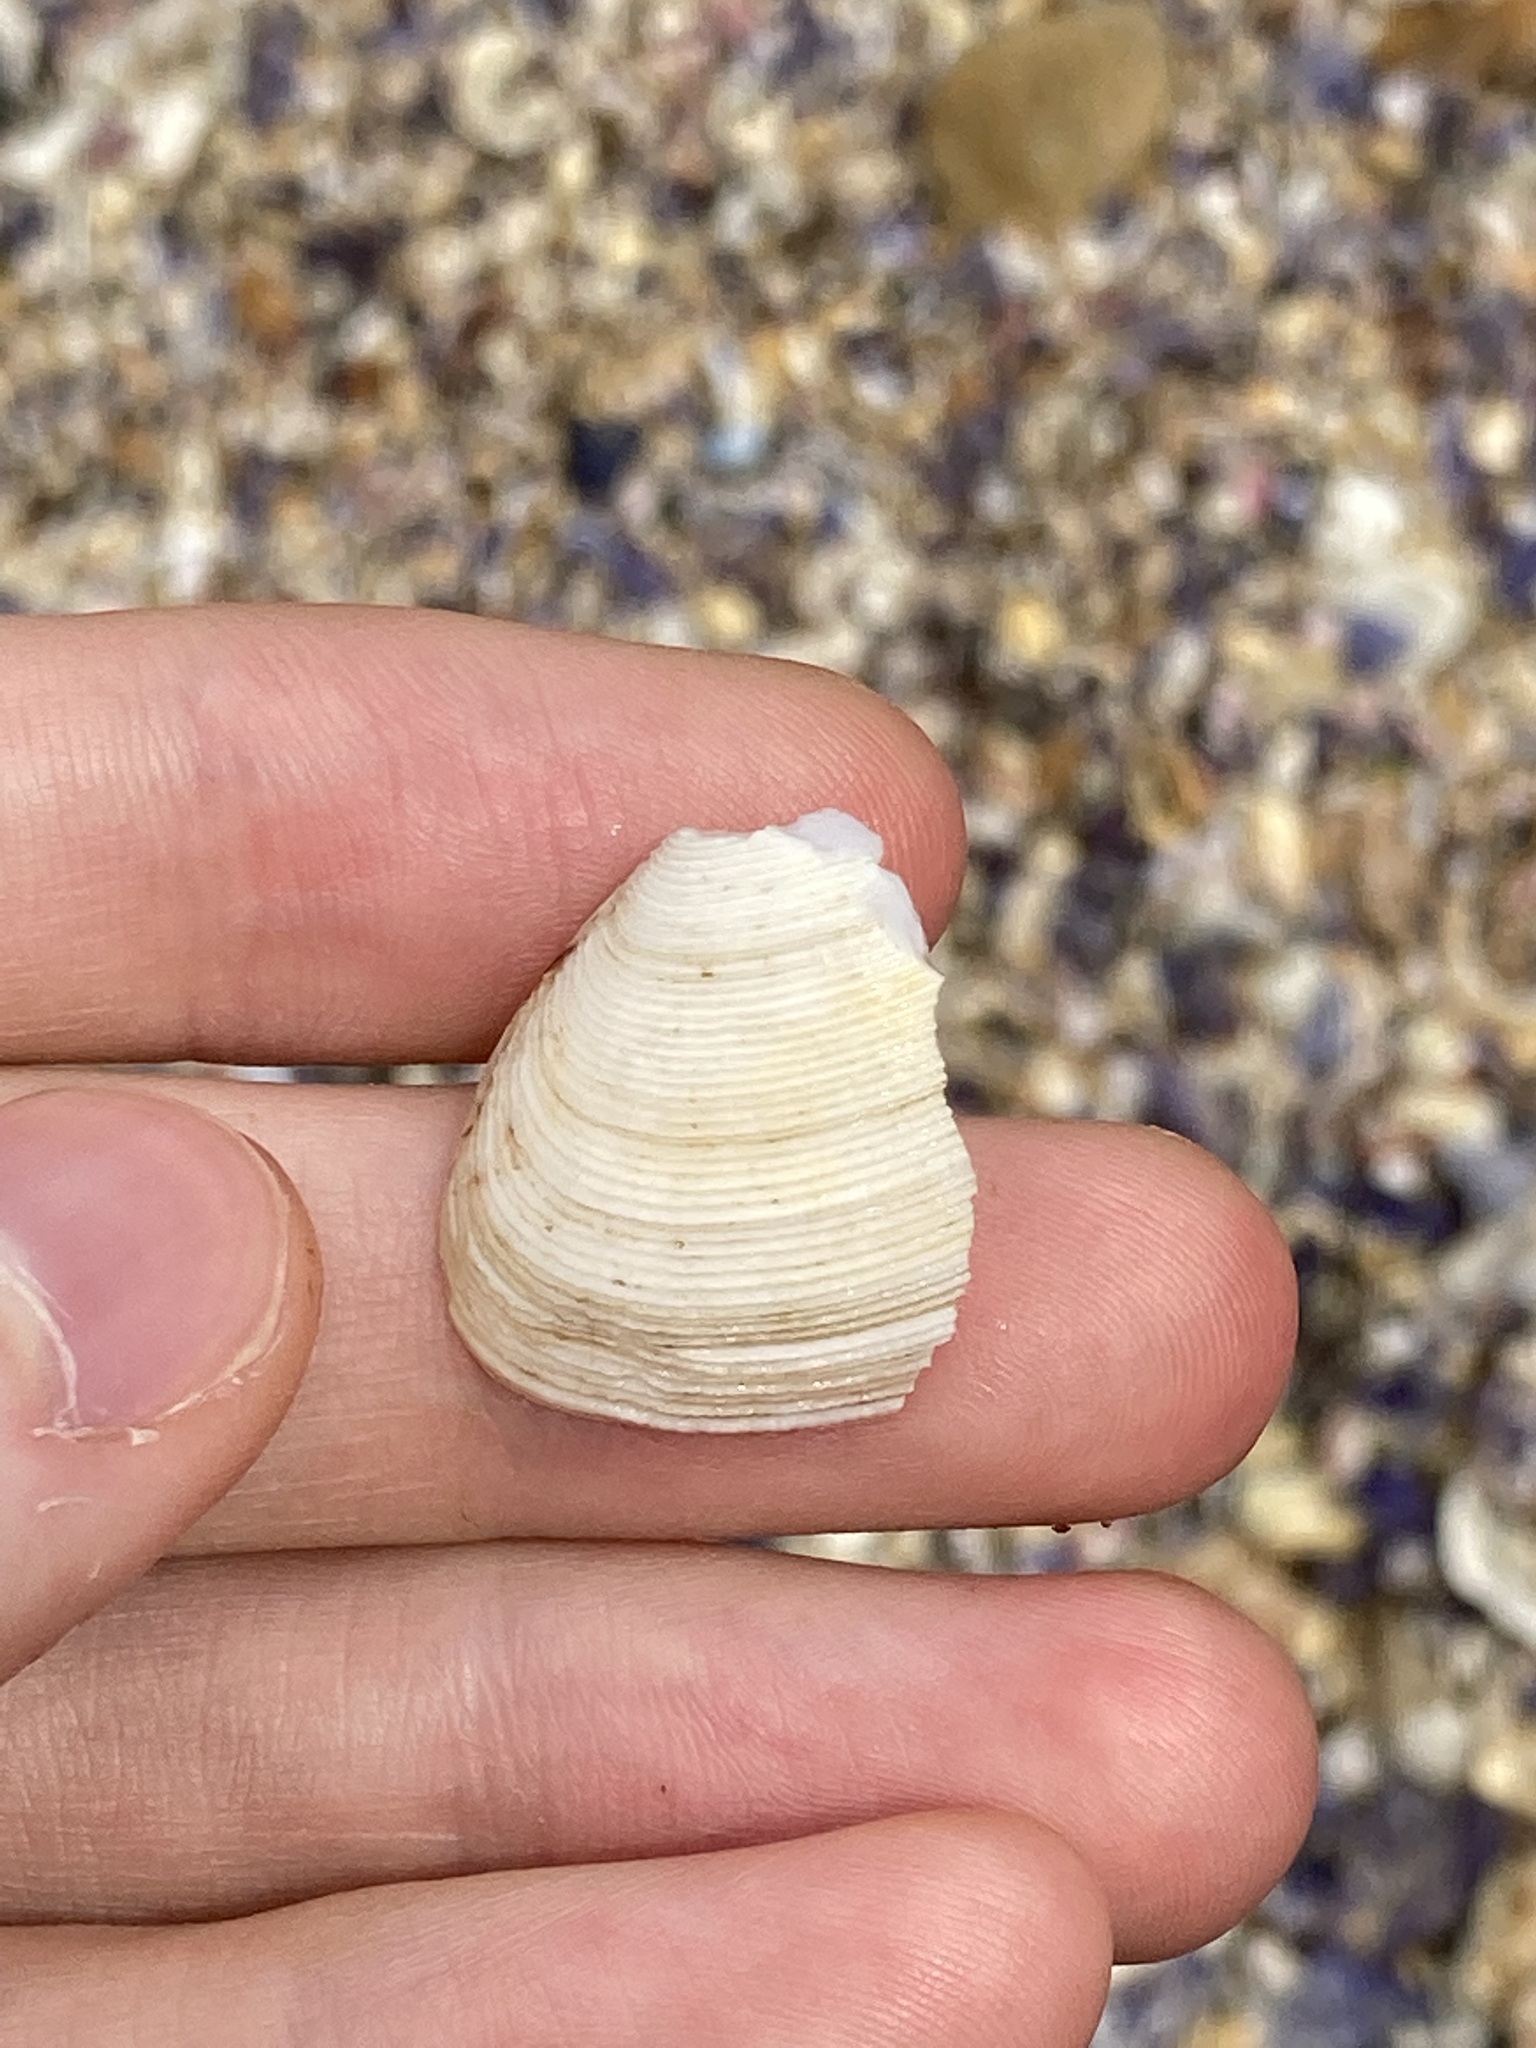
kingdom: Animalia
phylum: Mollusca
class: Bivalvia
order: Venerida
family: Veneridae
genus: Tawera
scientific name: Tawera lagopus
